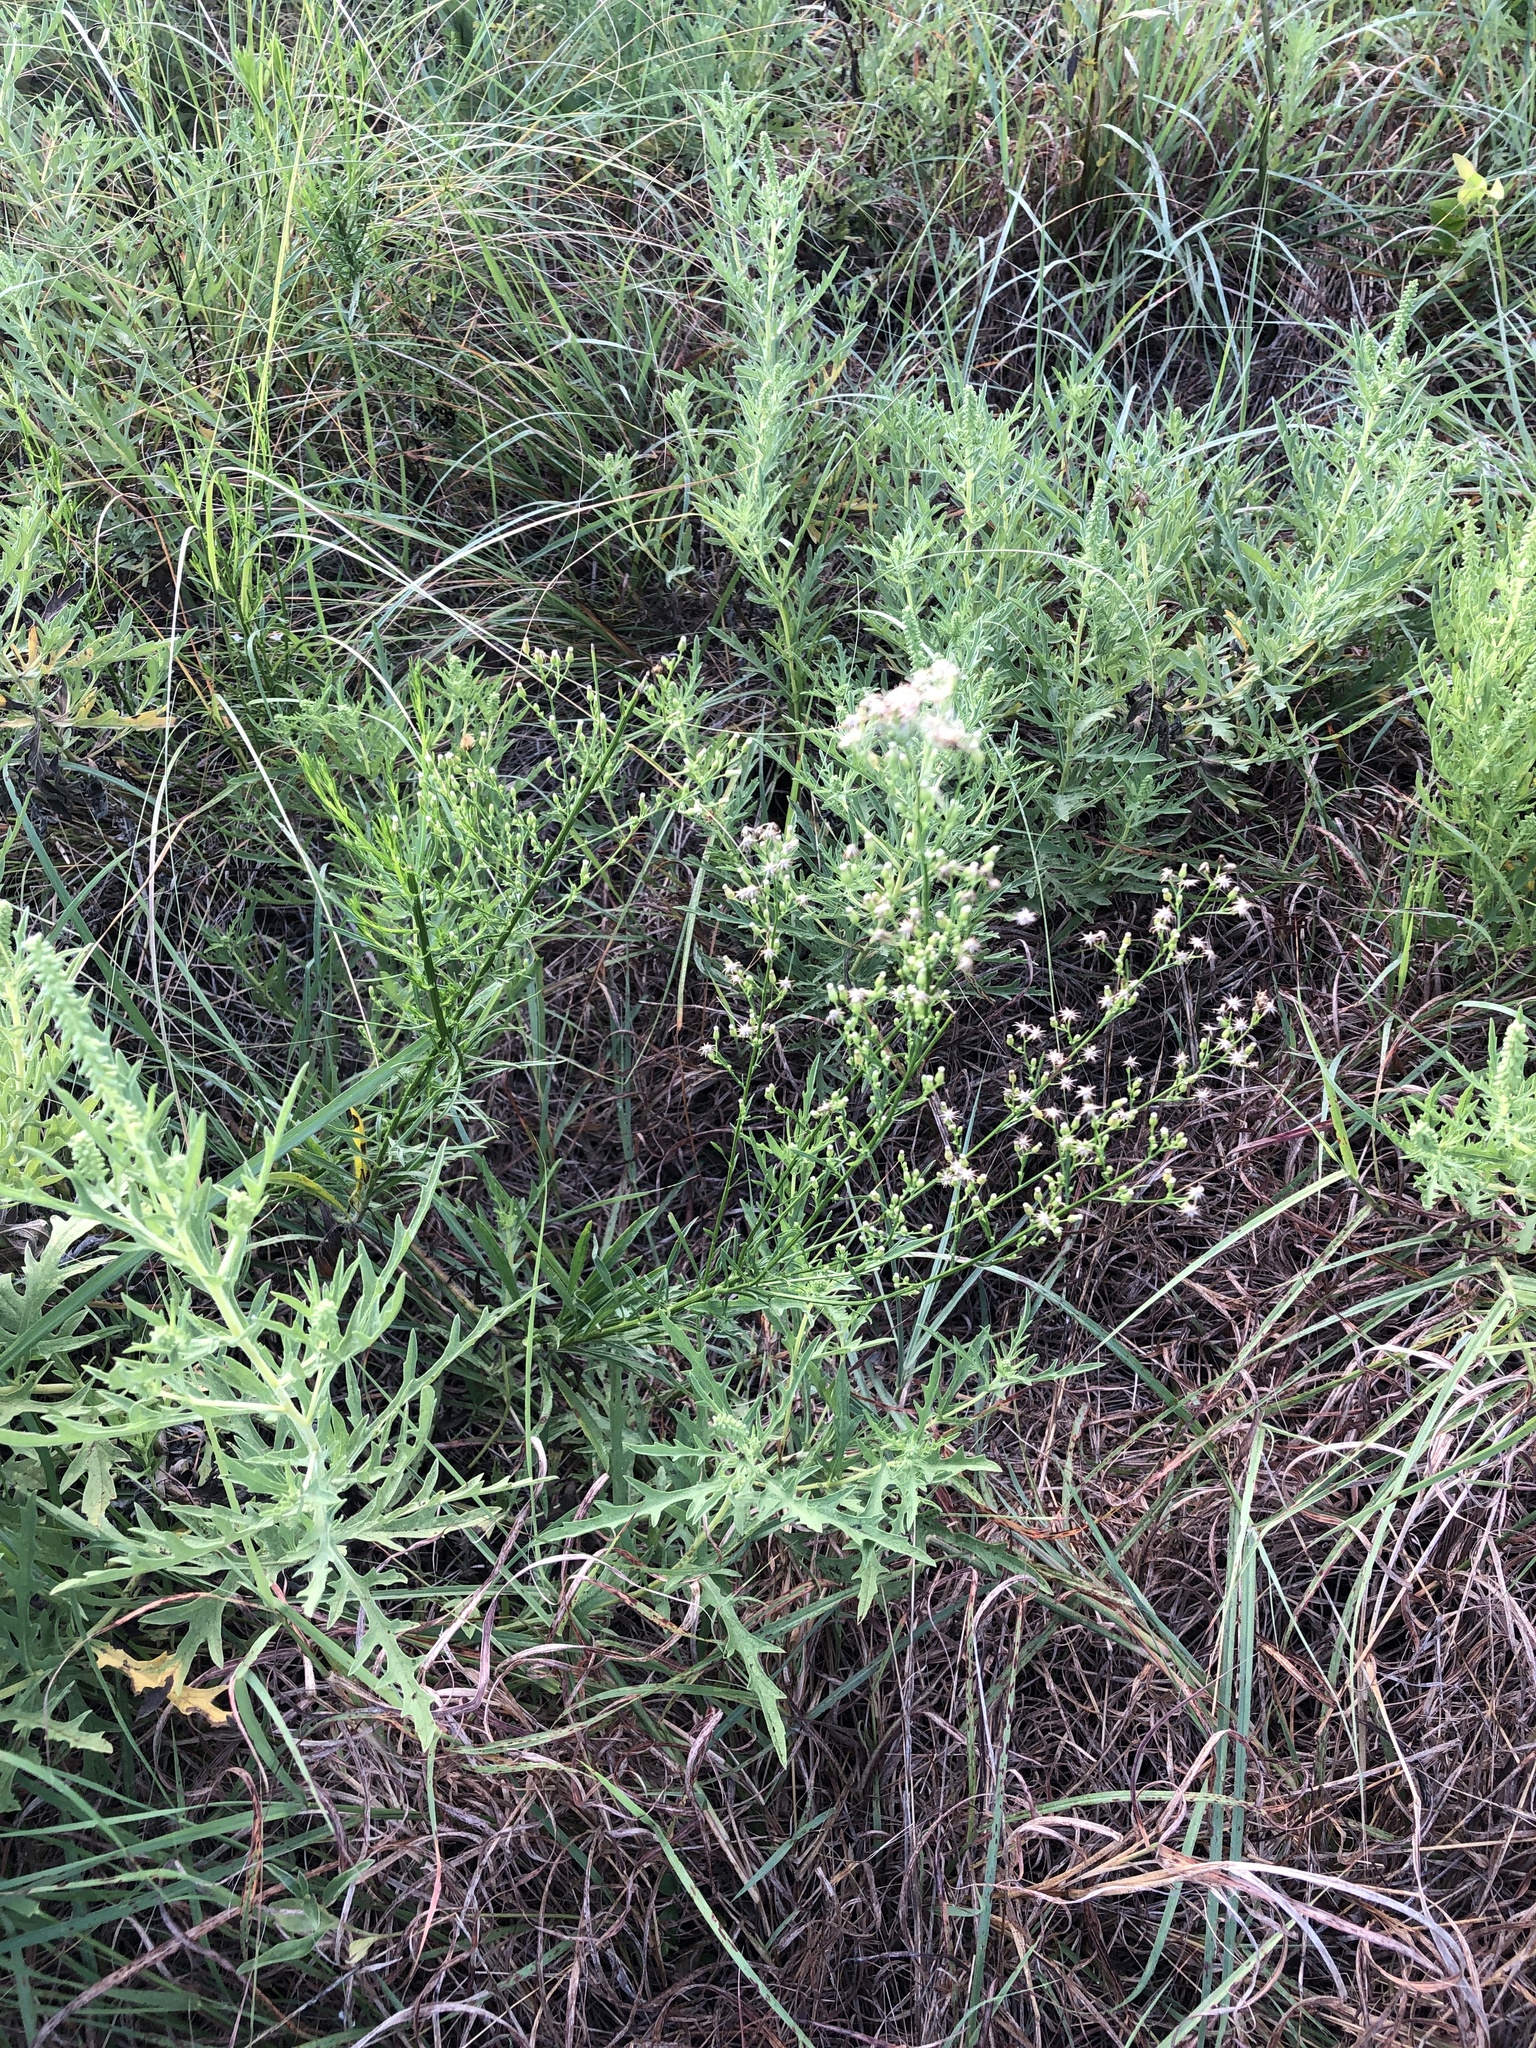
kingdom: Plantae
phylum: Tracheophyta
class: Magnoliopsida
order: Asterales
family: Asteraceae
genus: Erigeron
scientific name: Erigeron canadensis
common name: Canadian fleabane
